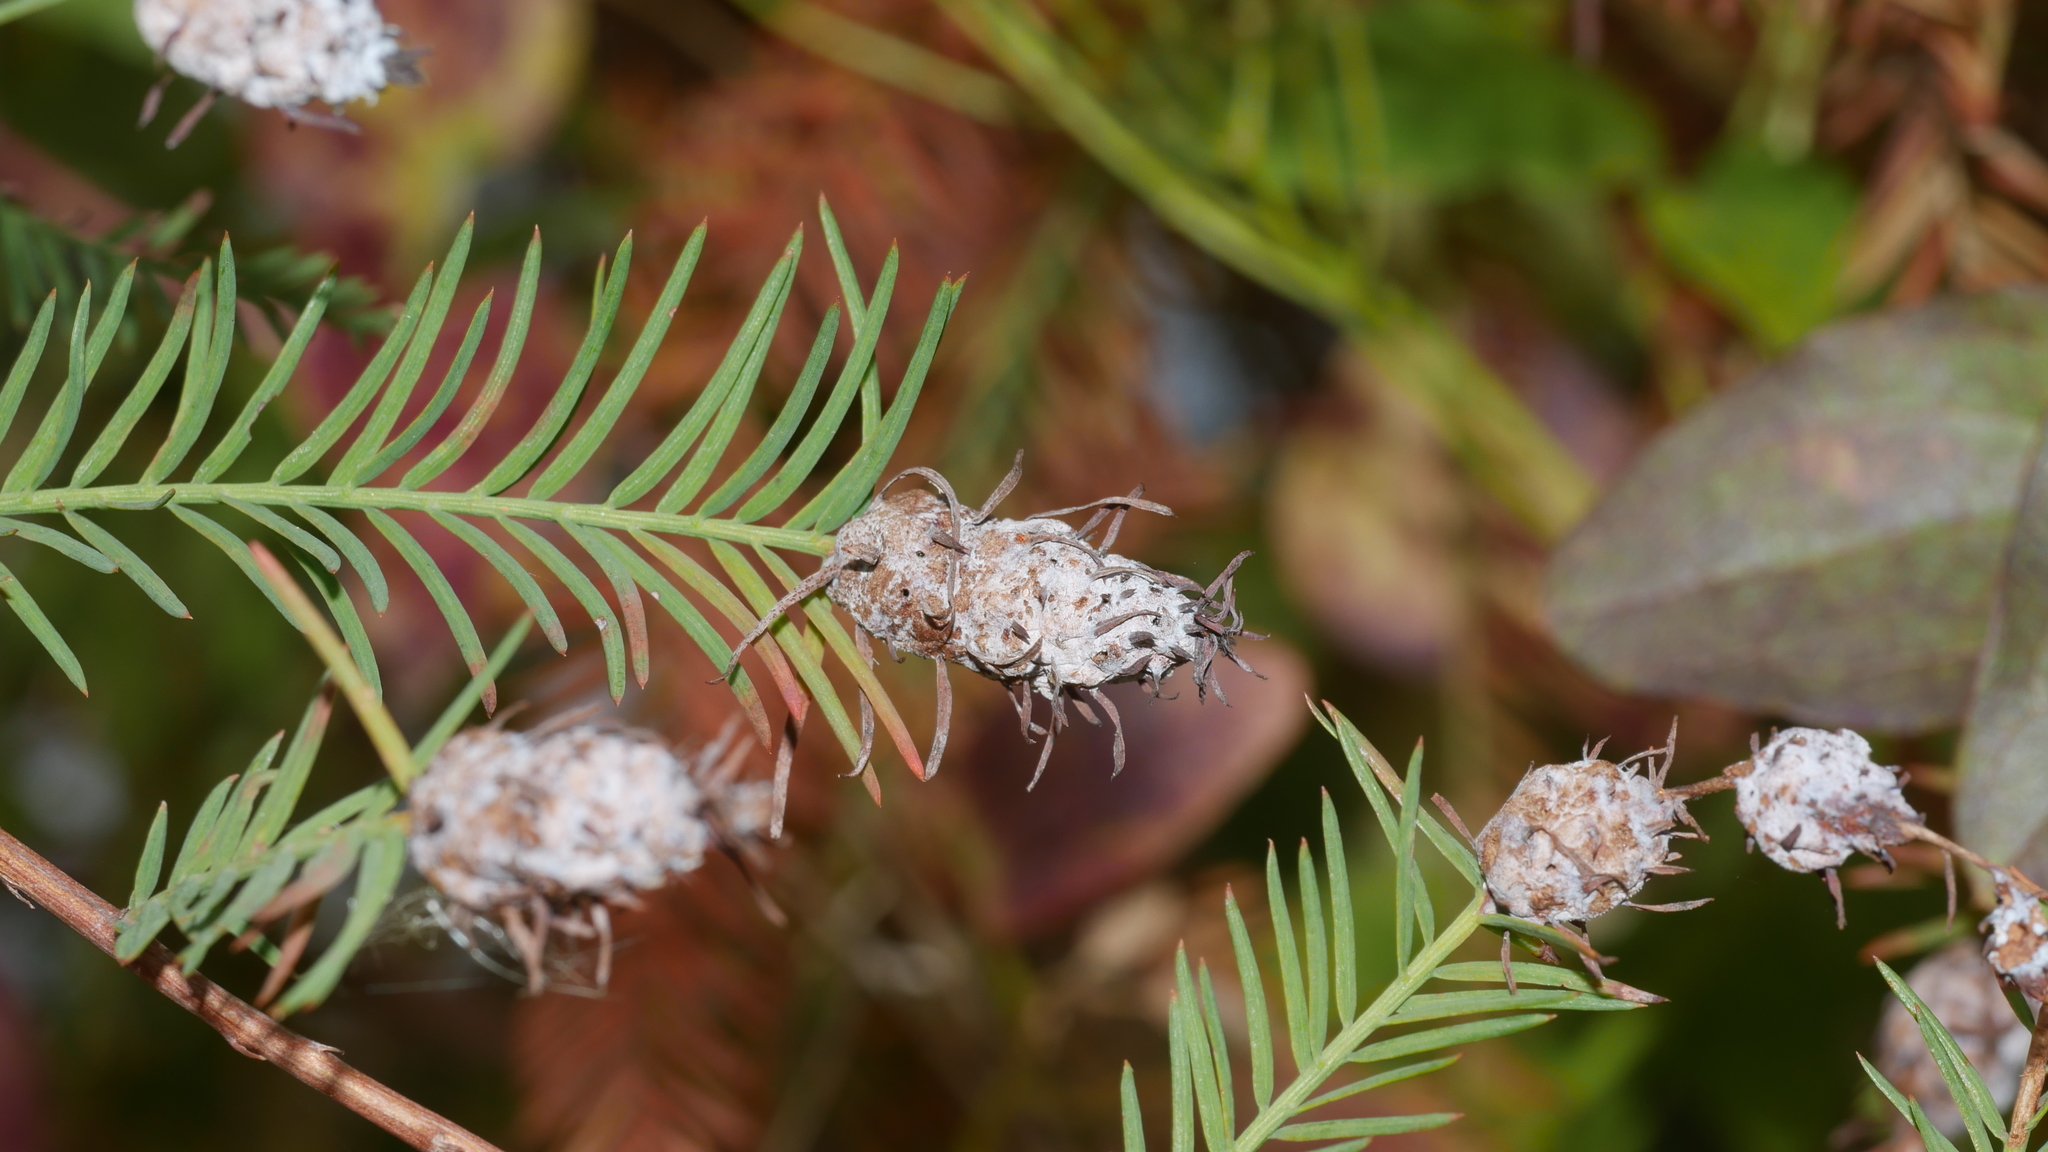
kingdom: Animalia
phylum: Arthropoda
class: Insecta
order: Diptera
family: Cecidomyiidae
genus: Taxodiomyia
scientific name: Taxodiomyia cupressiananassa
